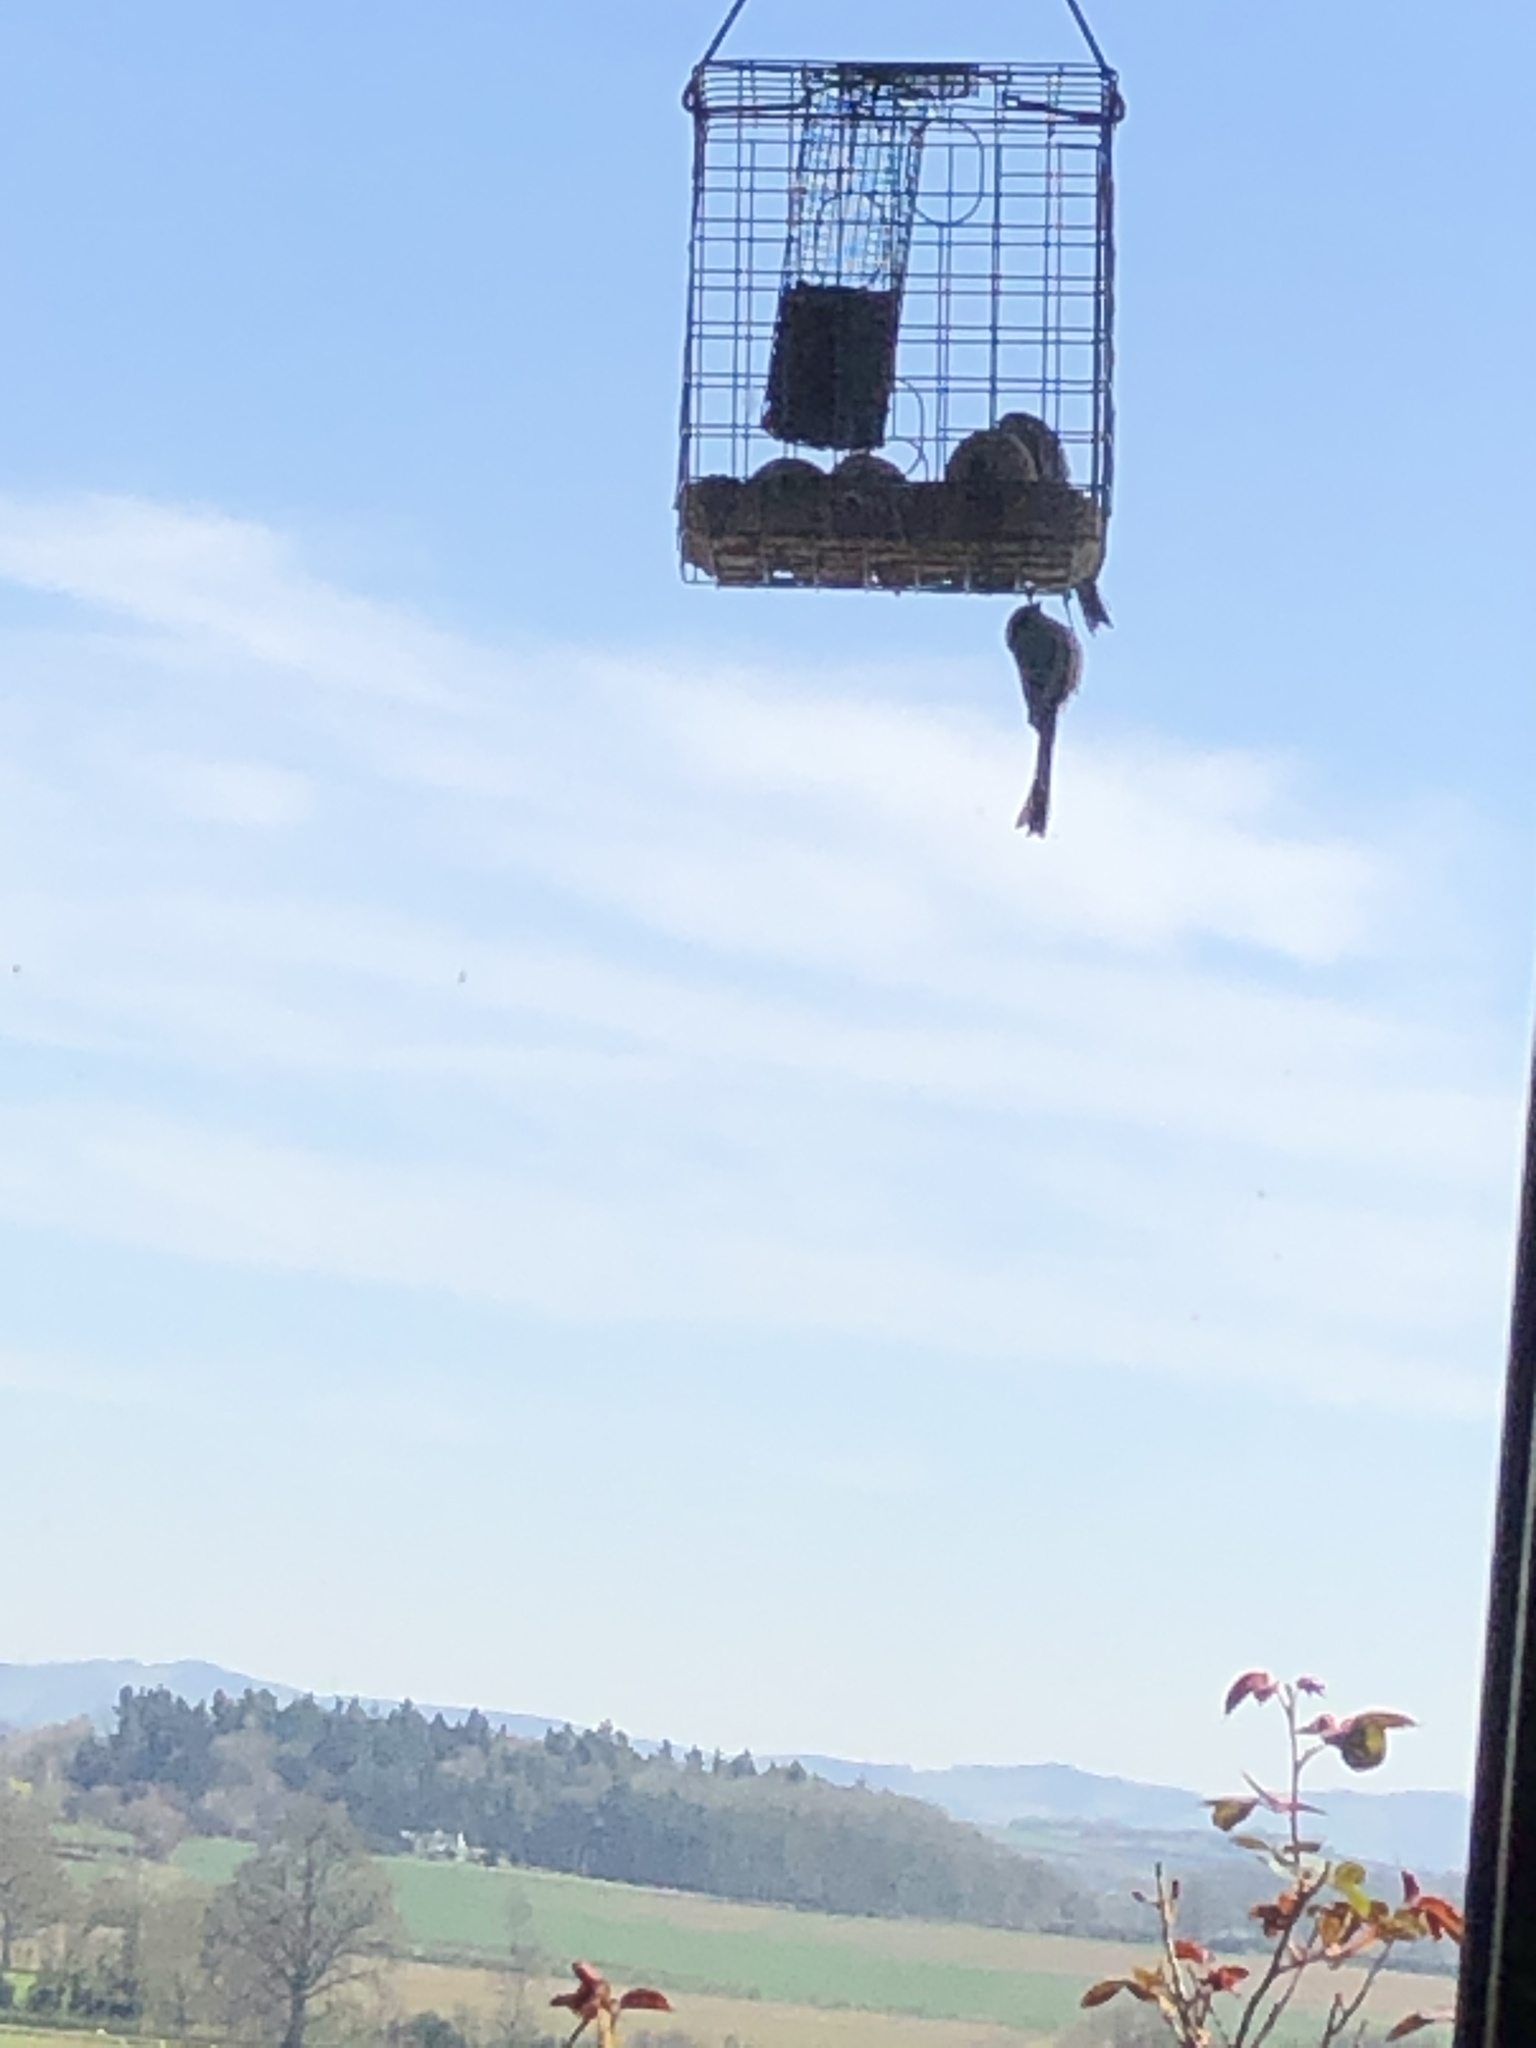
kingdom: Animalia
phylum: Chordata
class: Aves
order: Passeriformes
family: Aegithalidae
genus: Aegithalos
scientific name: Aegithalos caudatus
